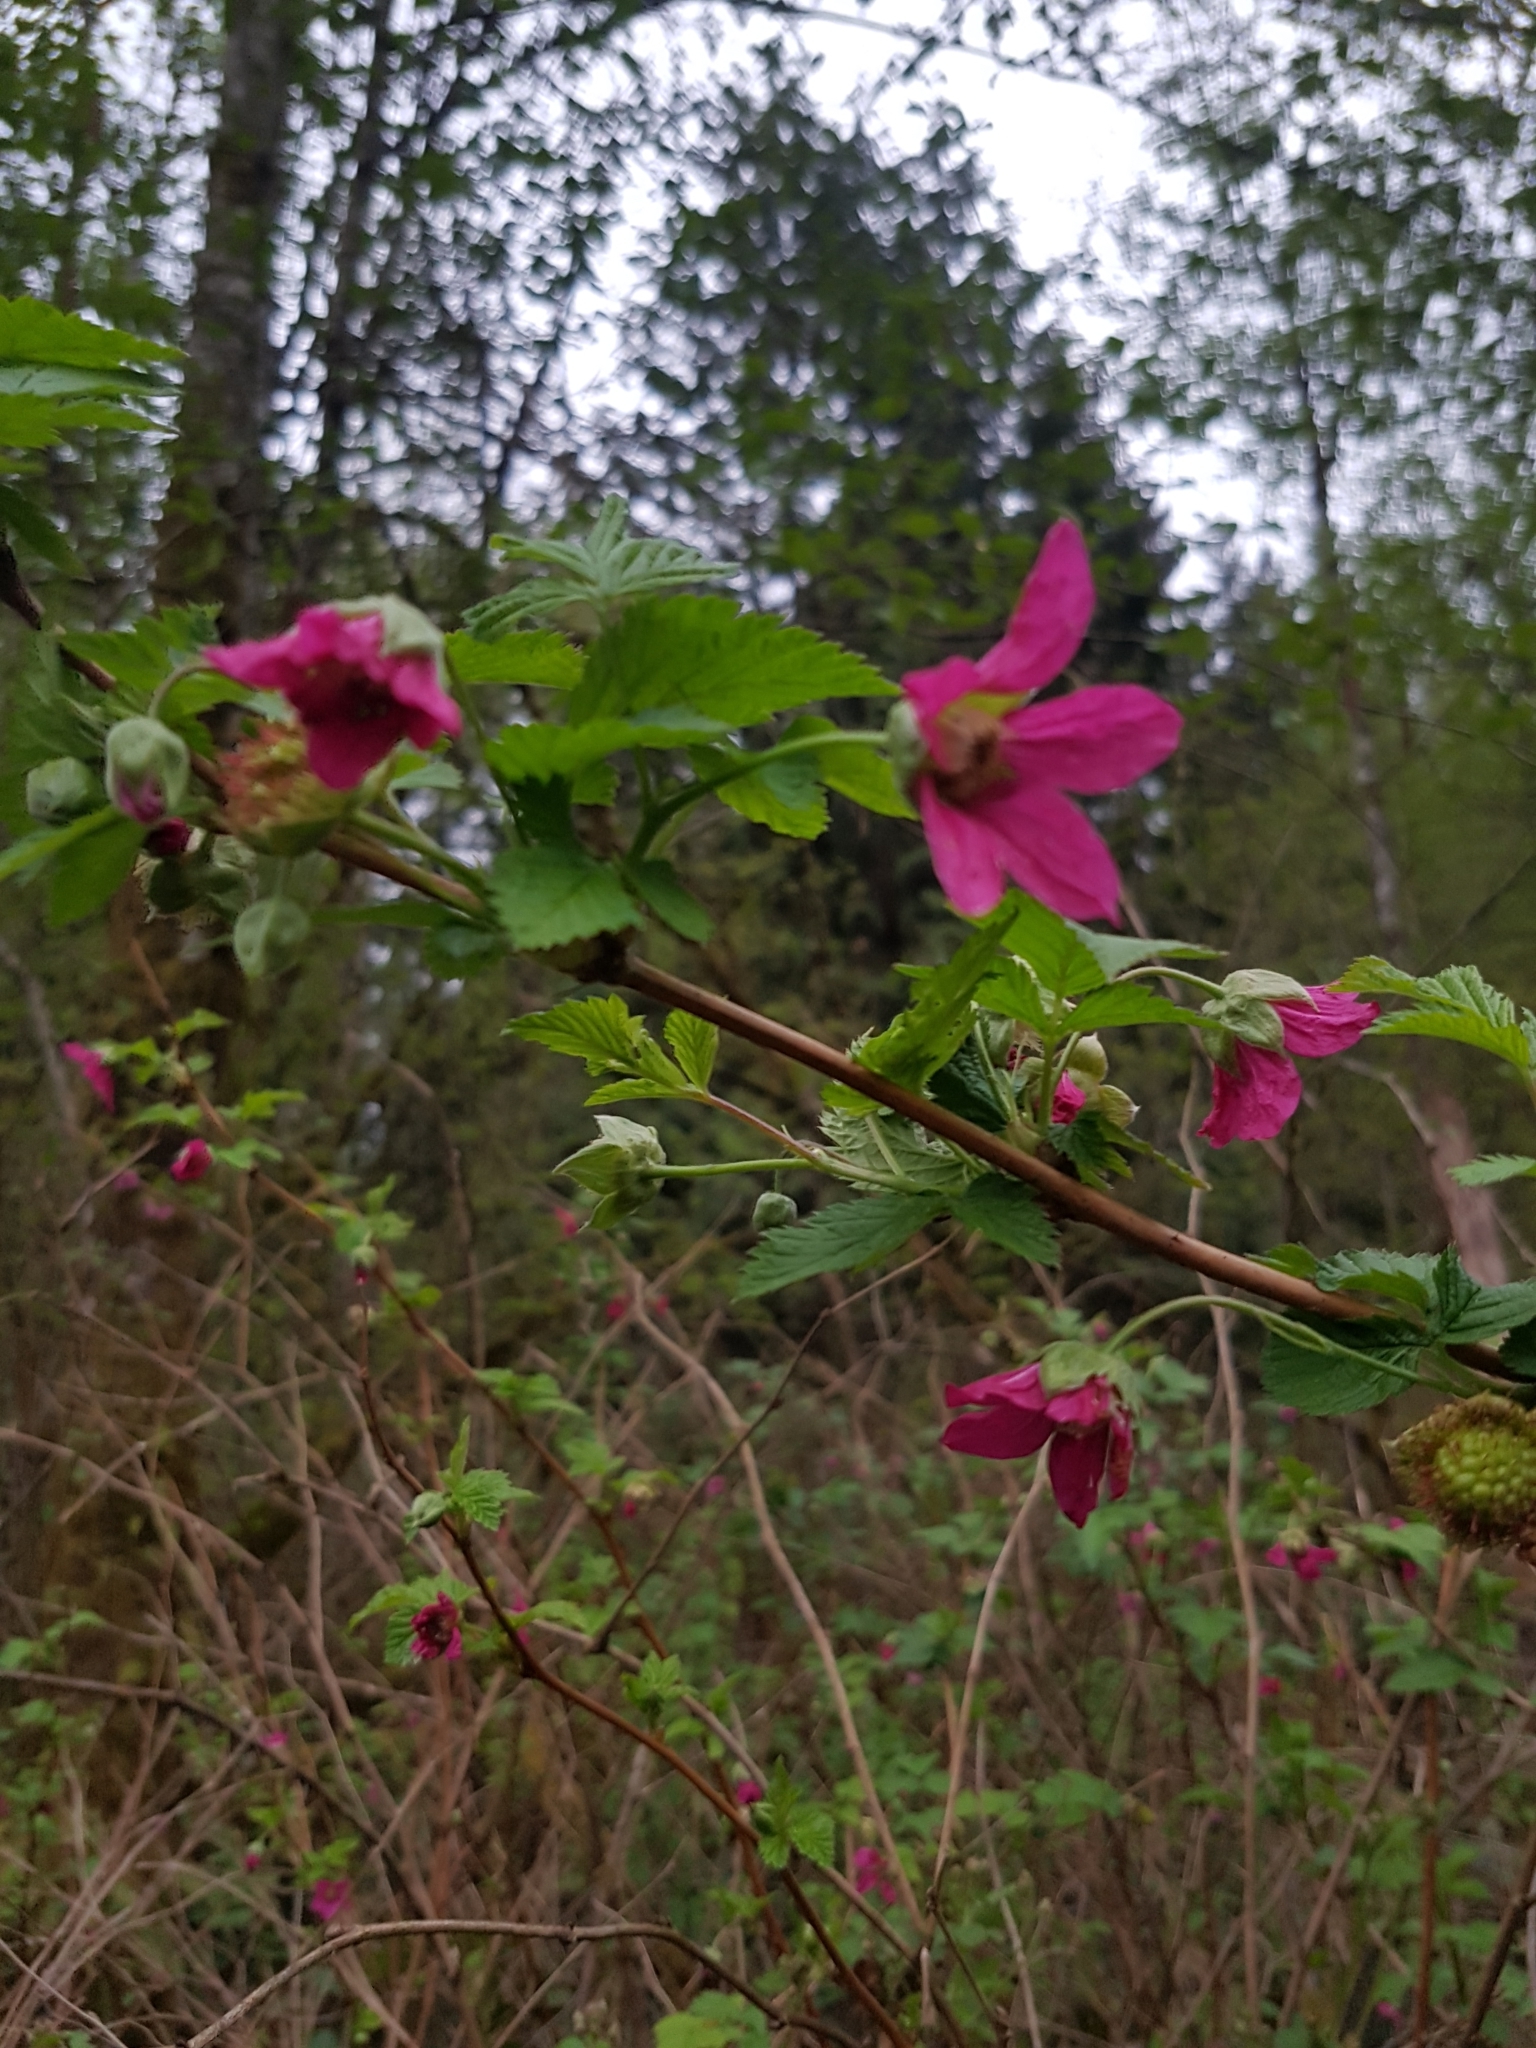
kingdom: Plantae
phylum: Tracheophyta
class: Magnoliopsida
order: Rosales
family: Rosaceae
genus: Rubus
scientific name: Rubus spectabilis
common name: Salmonberry
